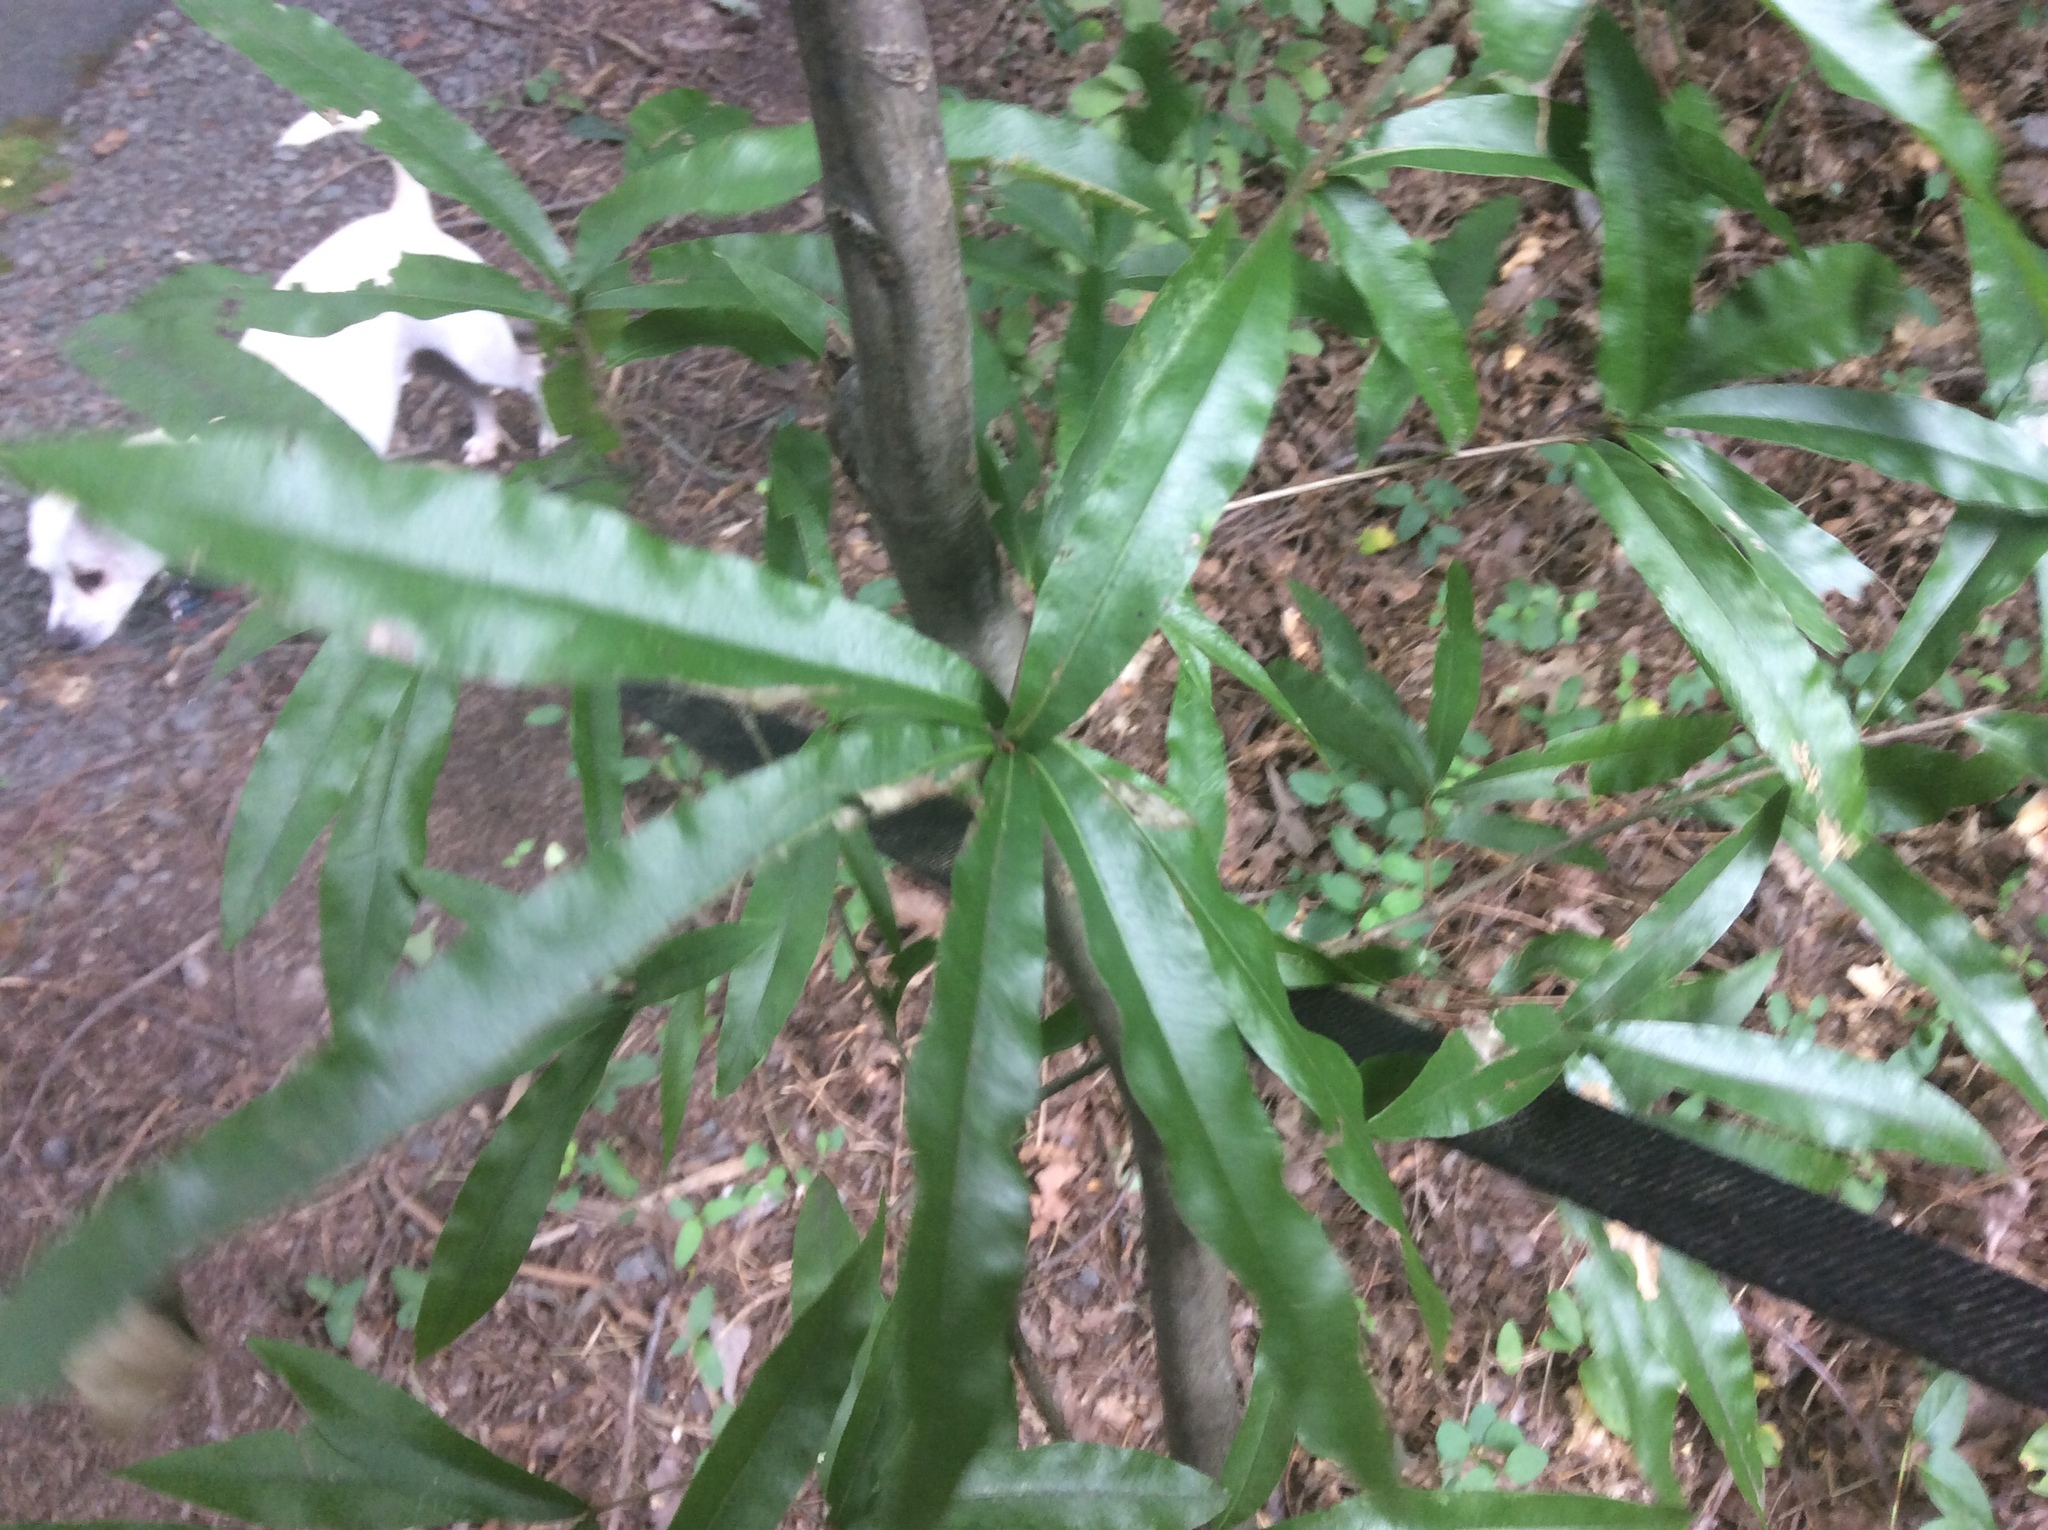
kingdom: Plantae
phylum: Tracheophyta
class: Magnoliopsida
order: Fagales
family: Fagaceae
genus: Quercus
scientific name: Quercus phellos
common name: Willow oak
